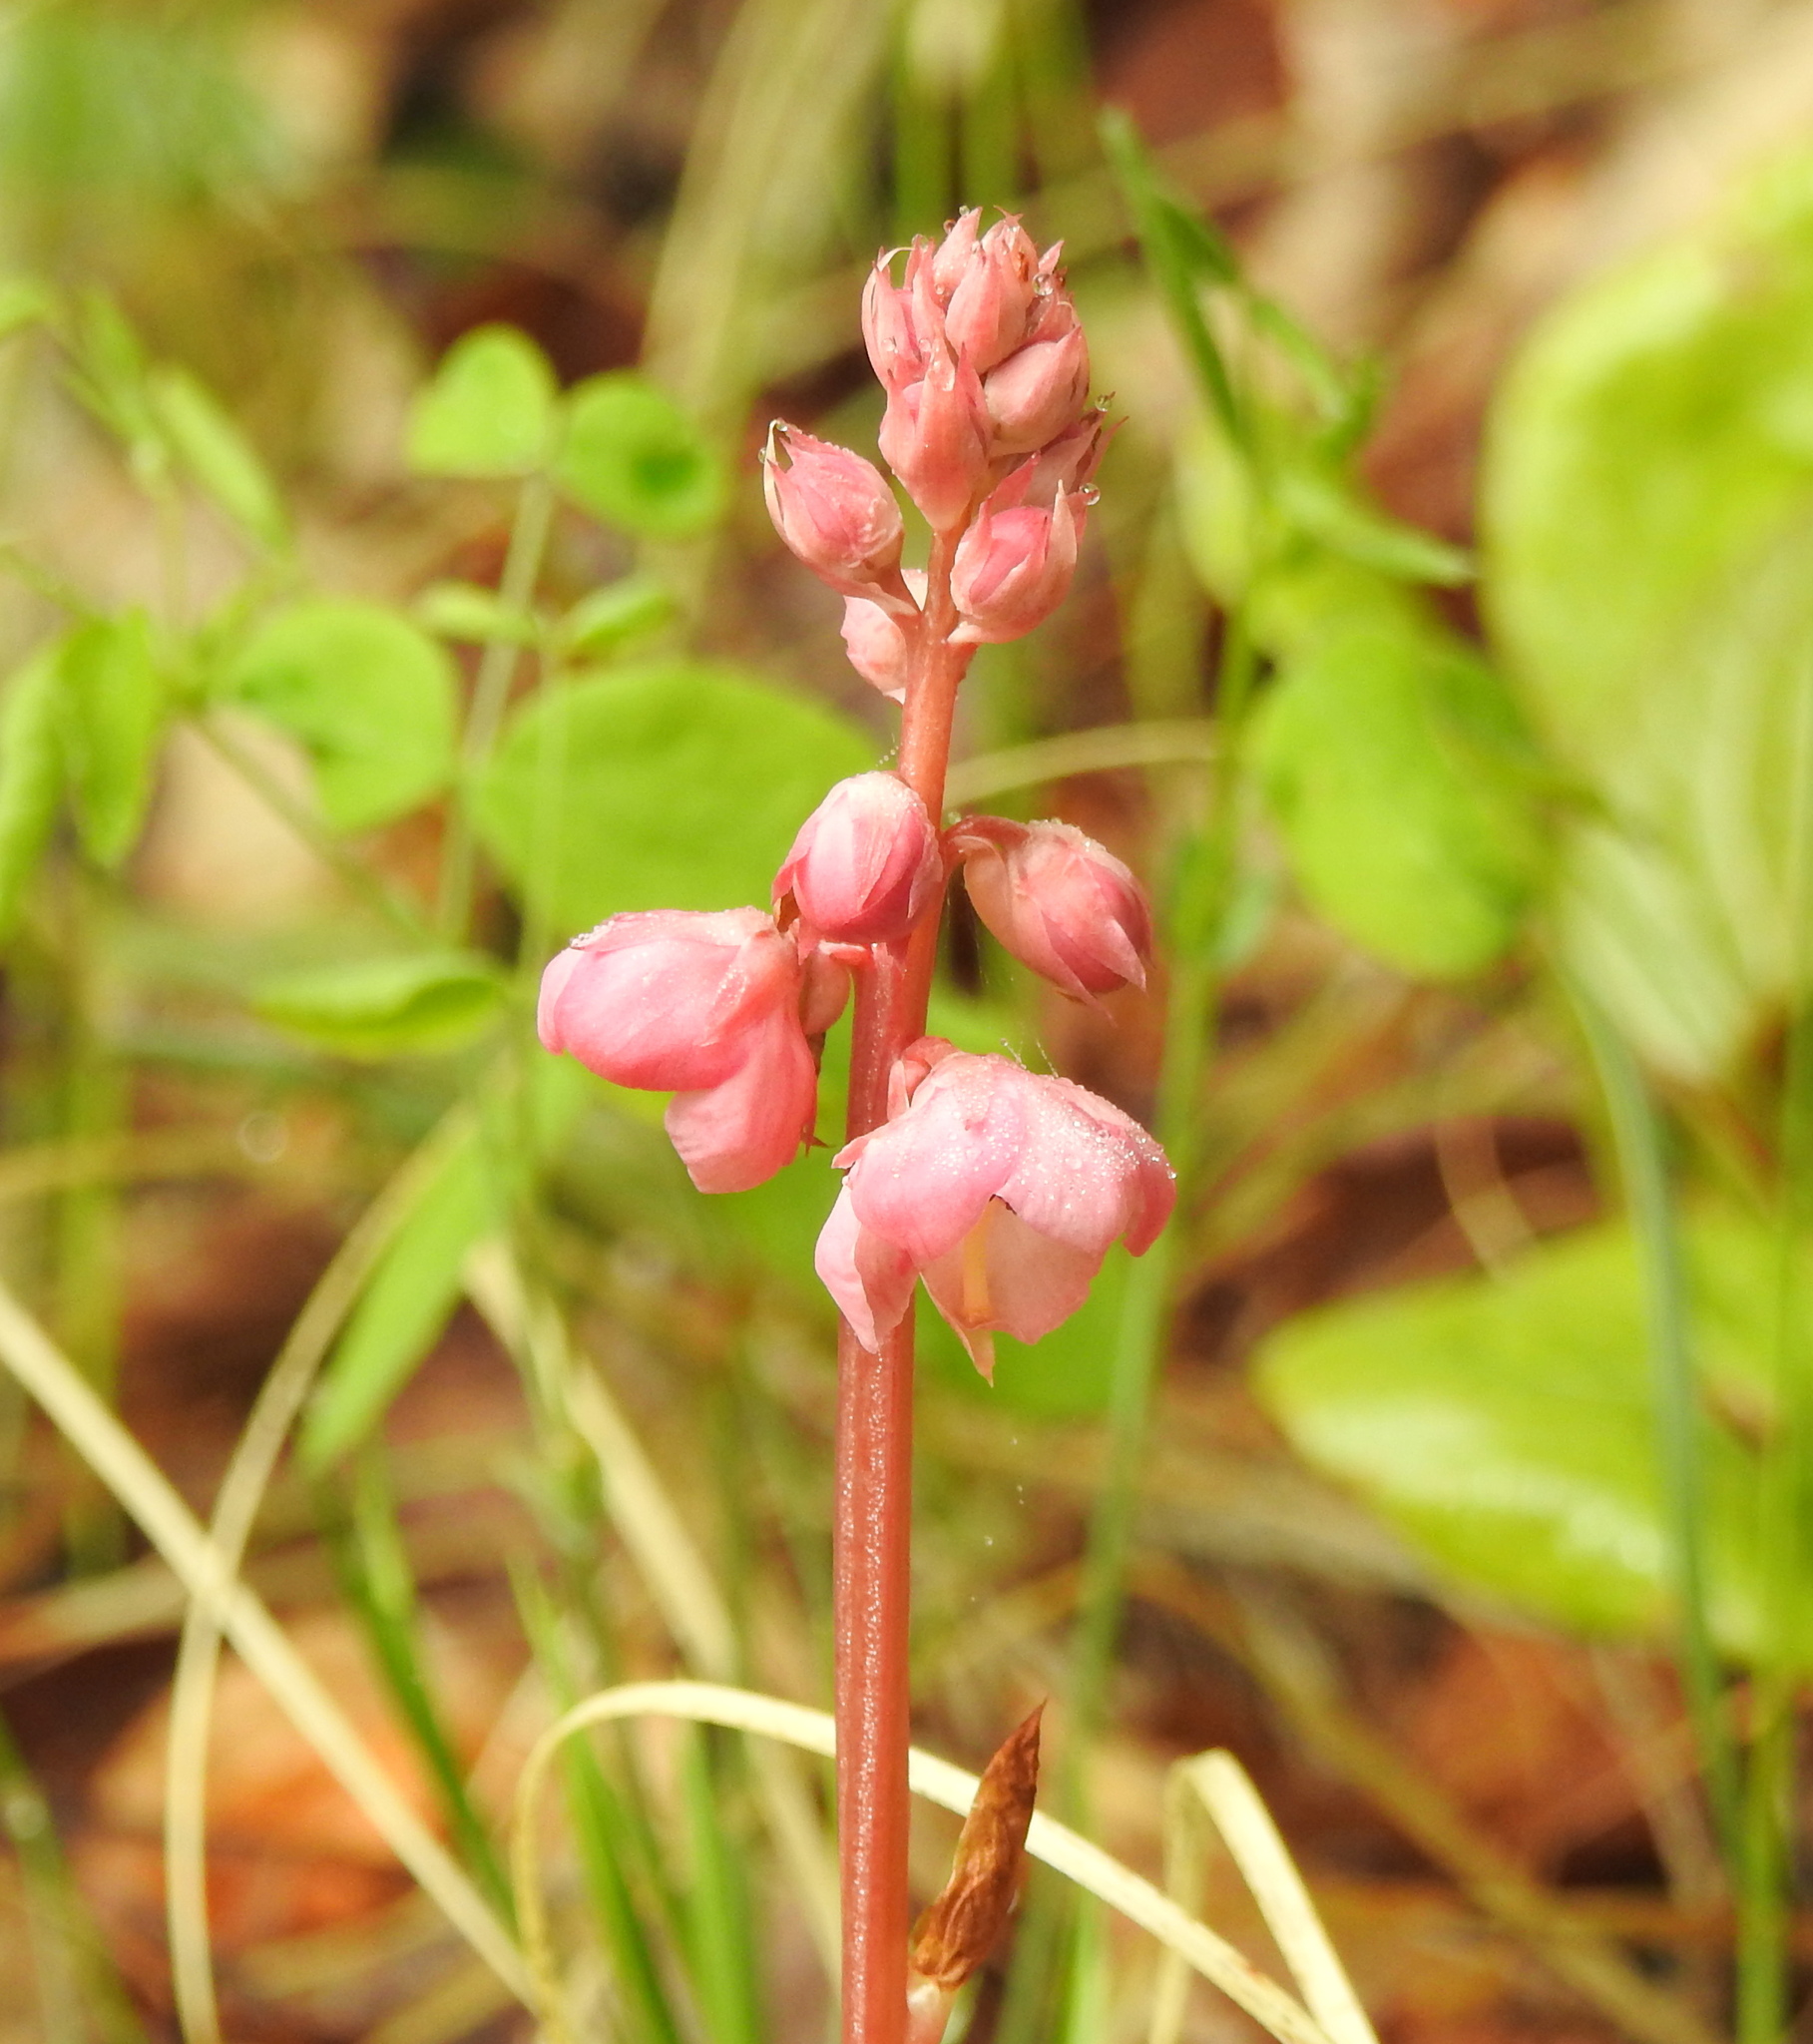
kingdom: Plantae
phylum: Tracheophyta
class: Magnoliopsida
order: Ericales
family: Ericaceae
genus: Pyrola
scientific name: Pyrola asarifolia
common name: Bog wintergreen
